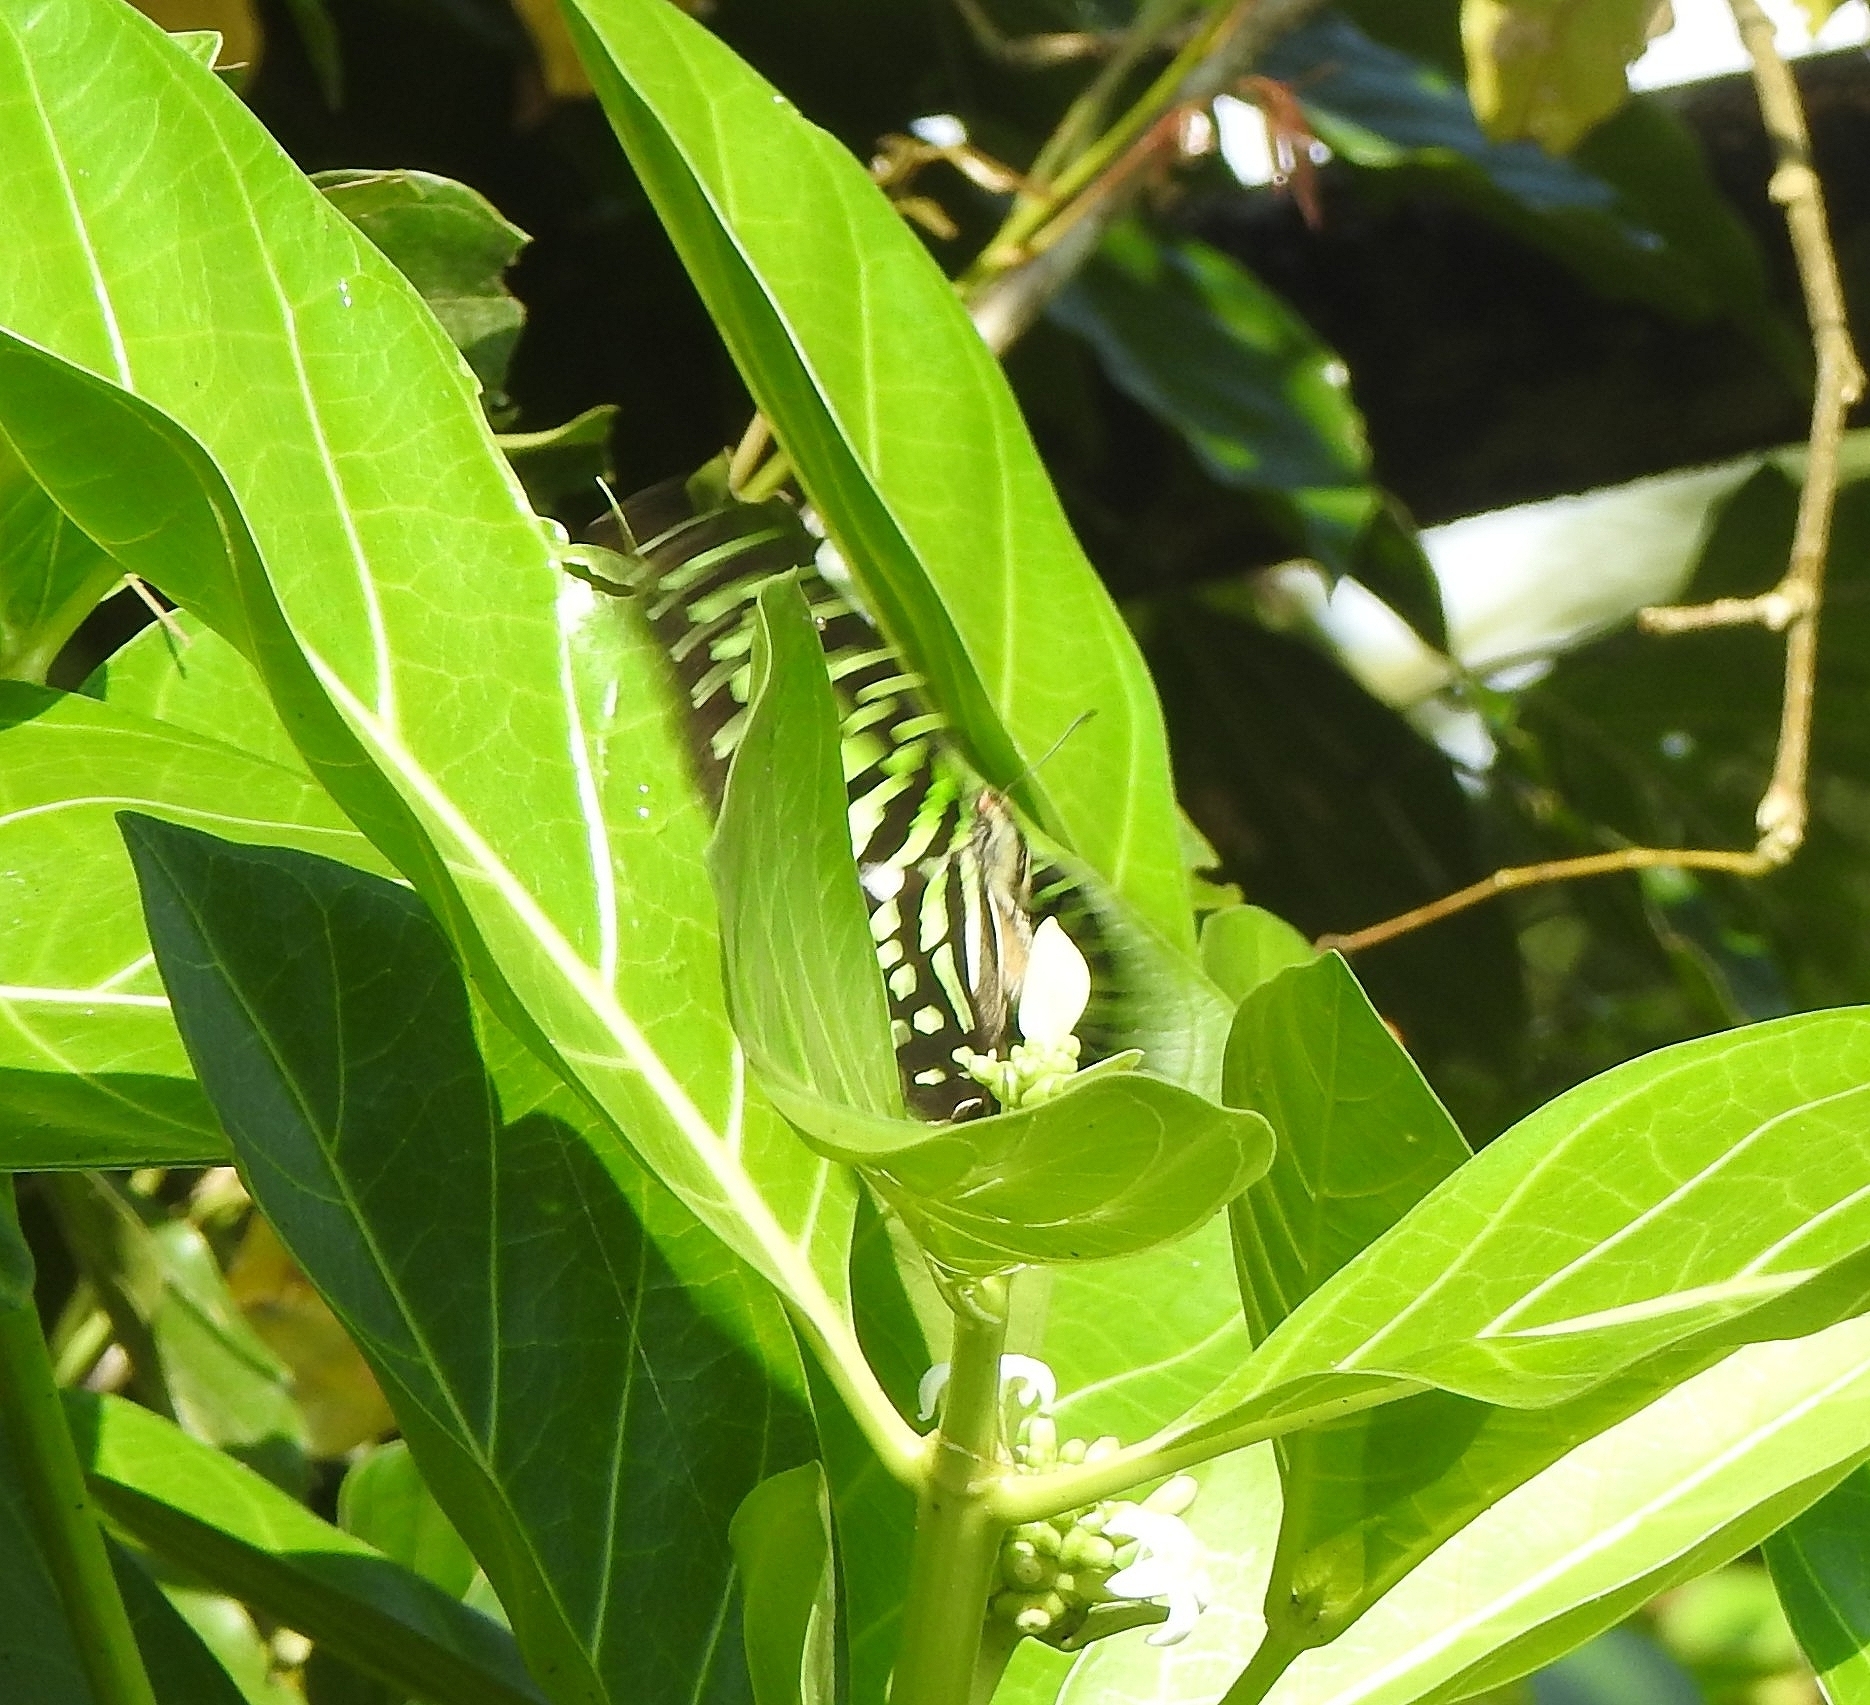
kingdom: Animalia
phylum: Arthropoda
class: Insecta
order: Lepidoptera
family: Papilionidae
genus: Graphium
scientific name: Graphium agamemnon
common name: Tailed jay
